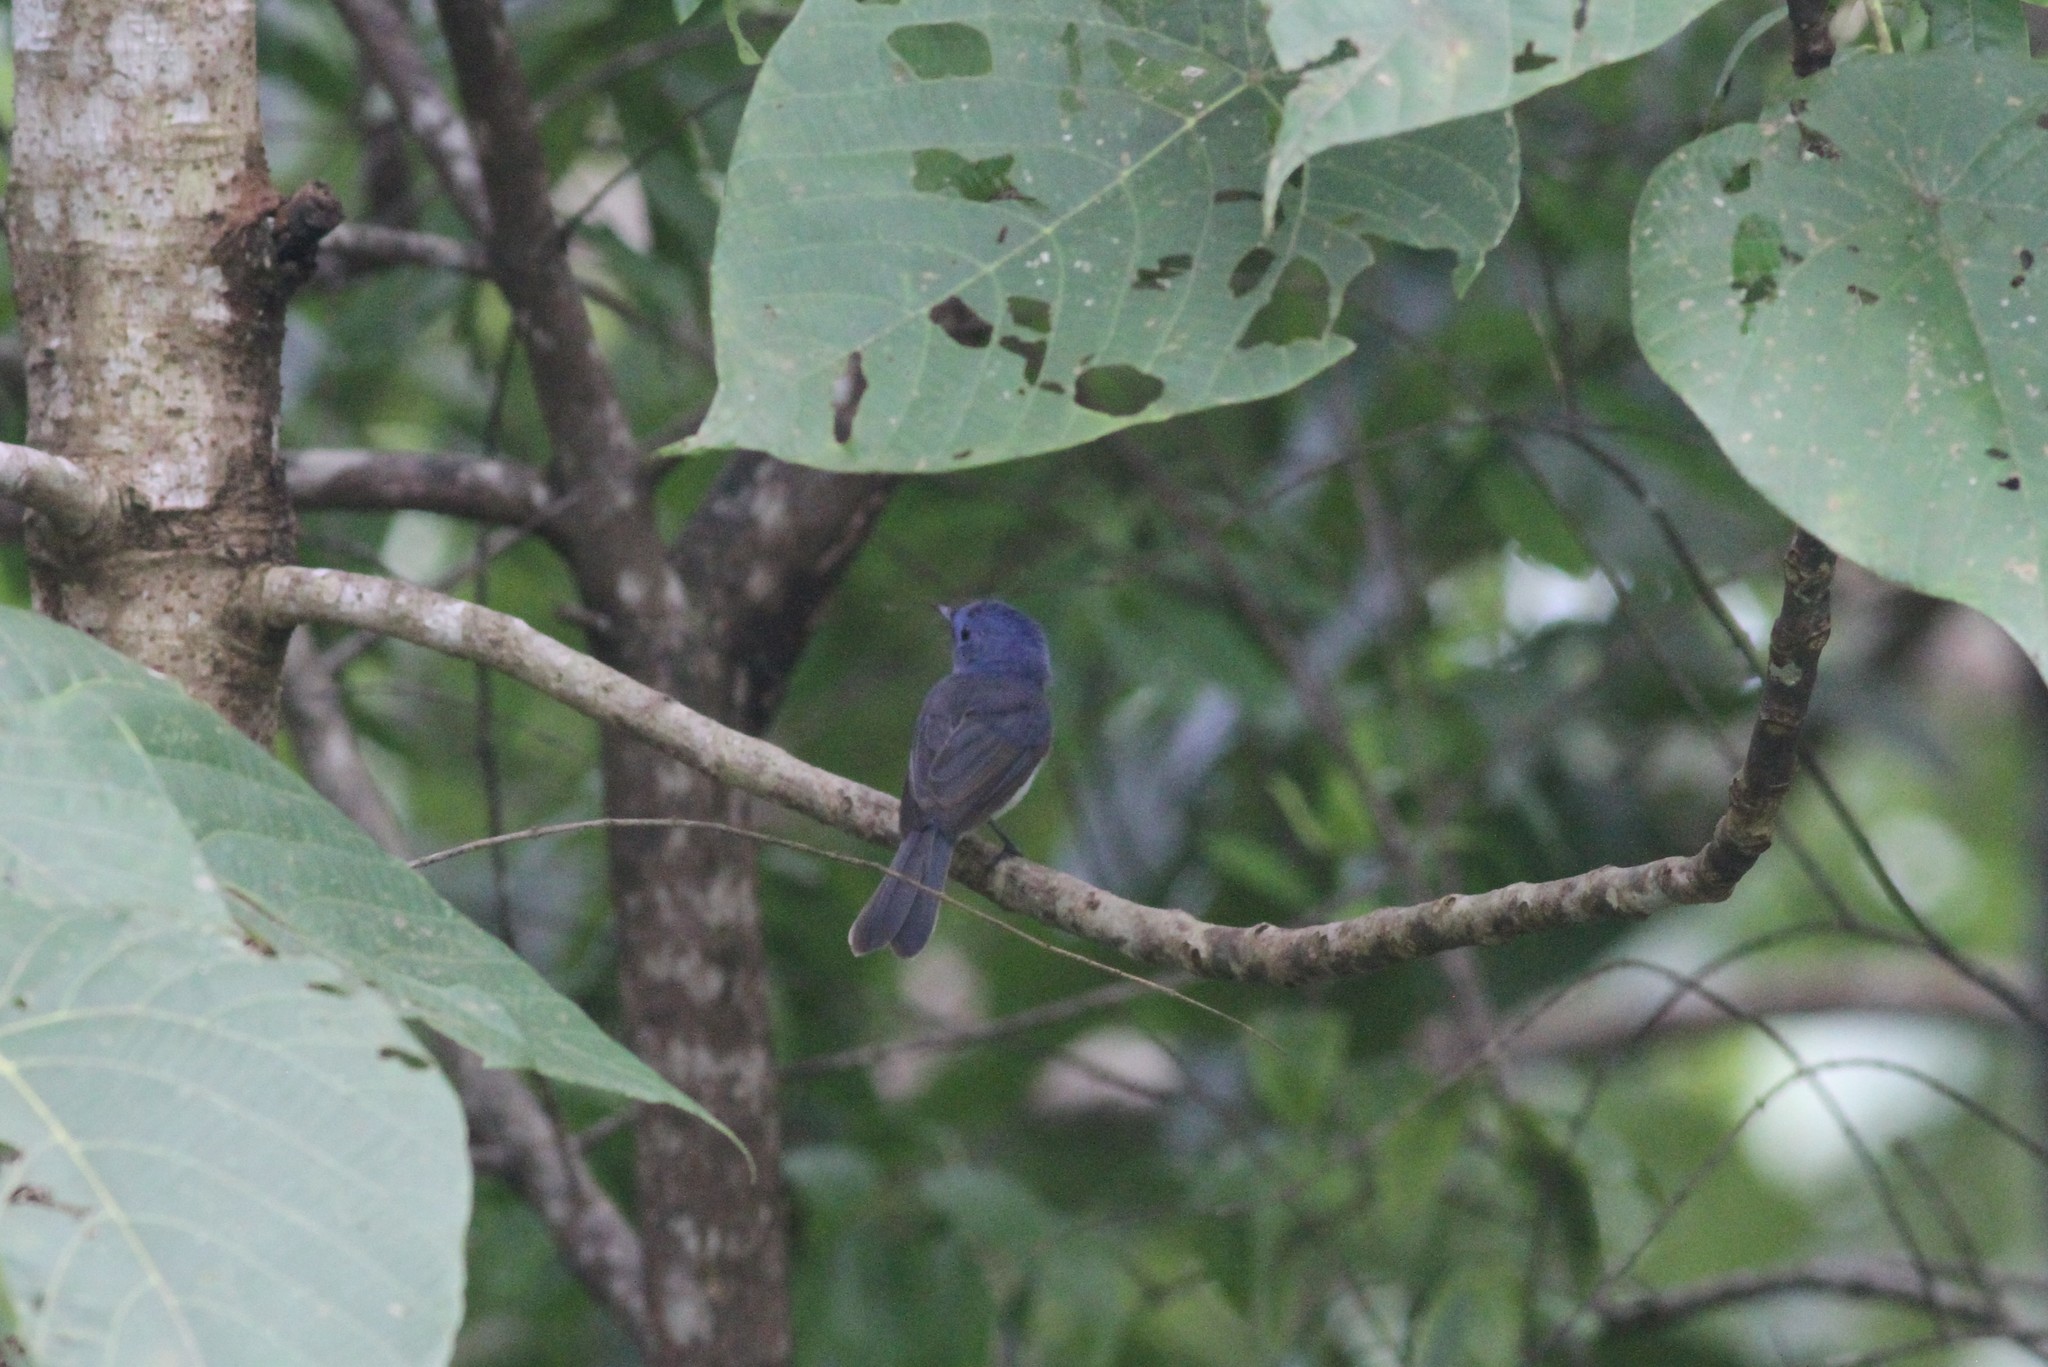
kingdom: Animalia
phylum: Chordata
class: Aves
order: Passeriformes
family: Monarchidae
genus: Hypothymis
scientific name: Hypothymis azurea
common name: Black-naped monarch
